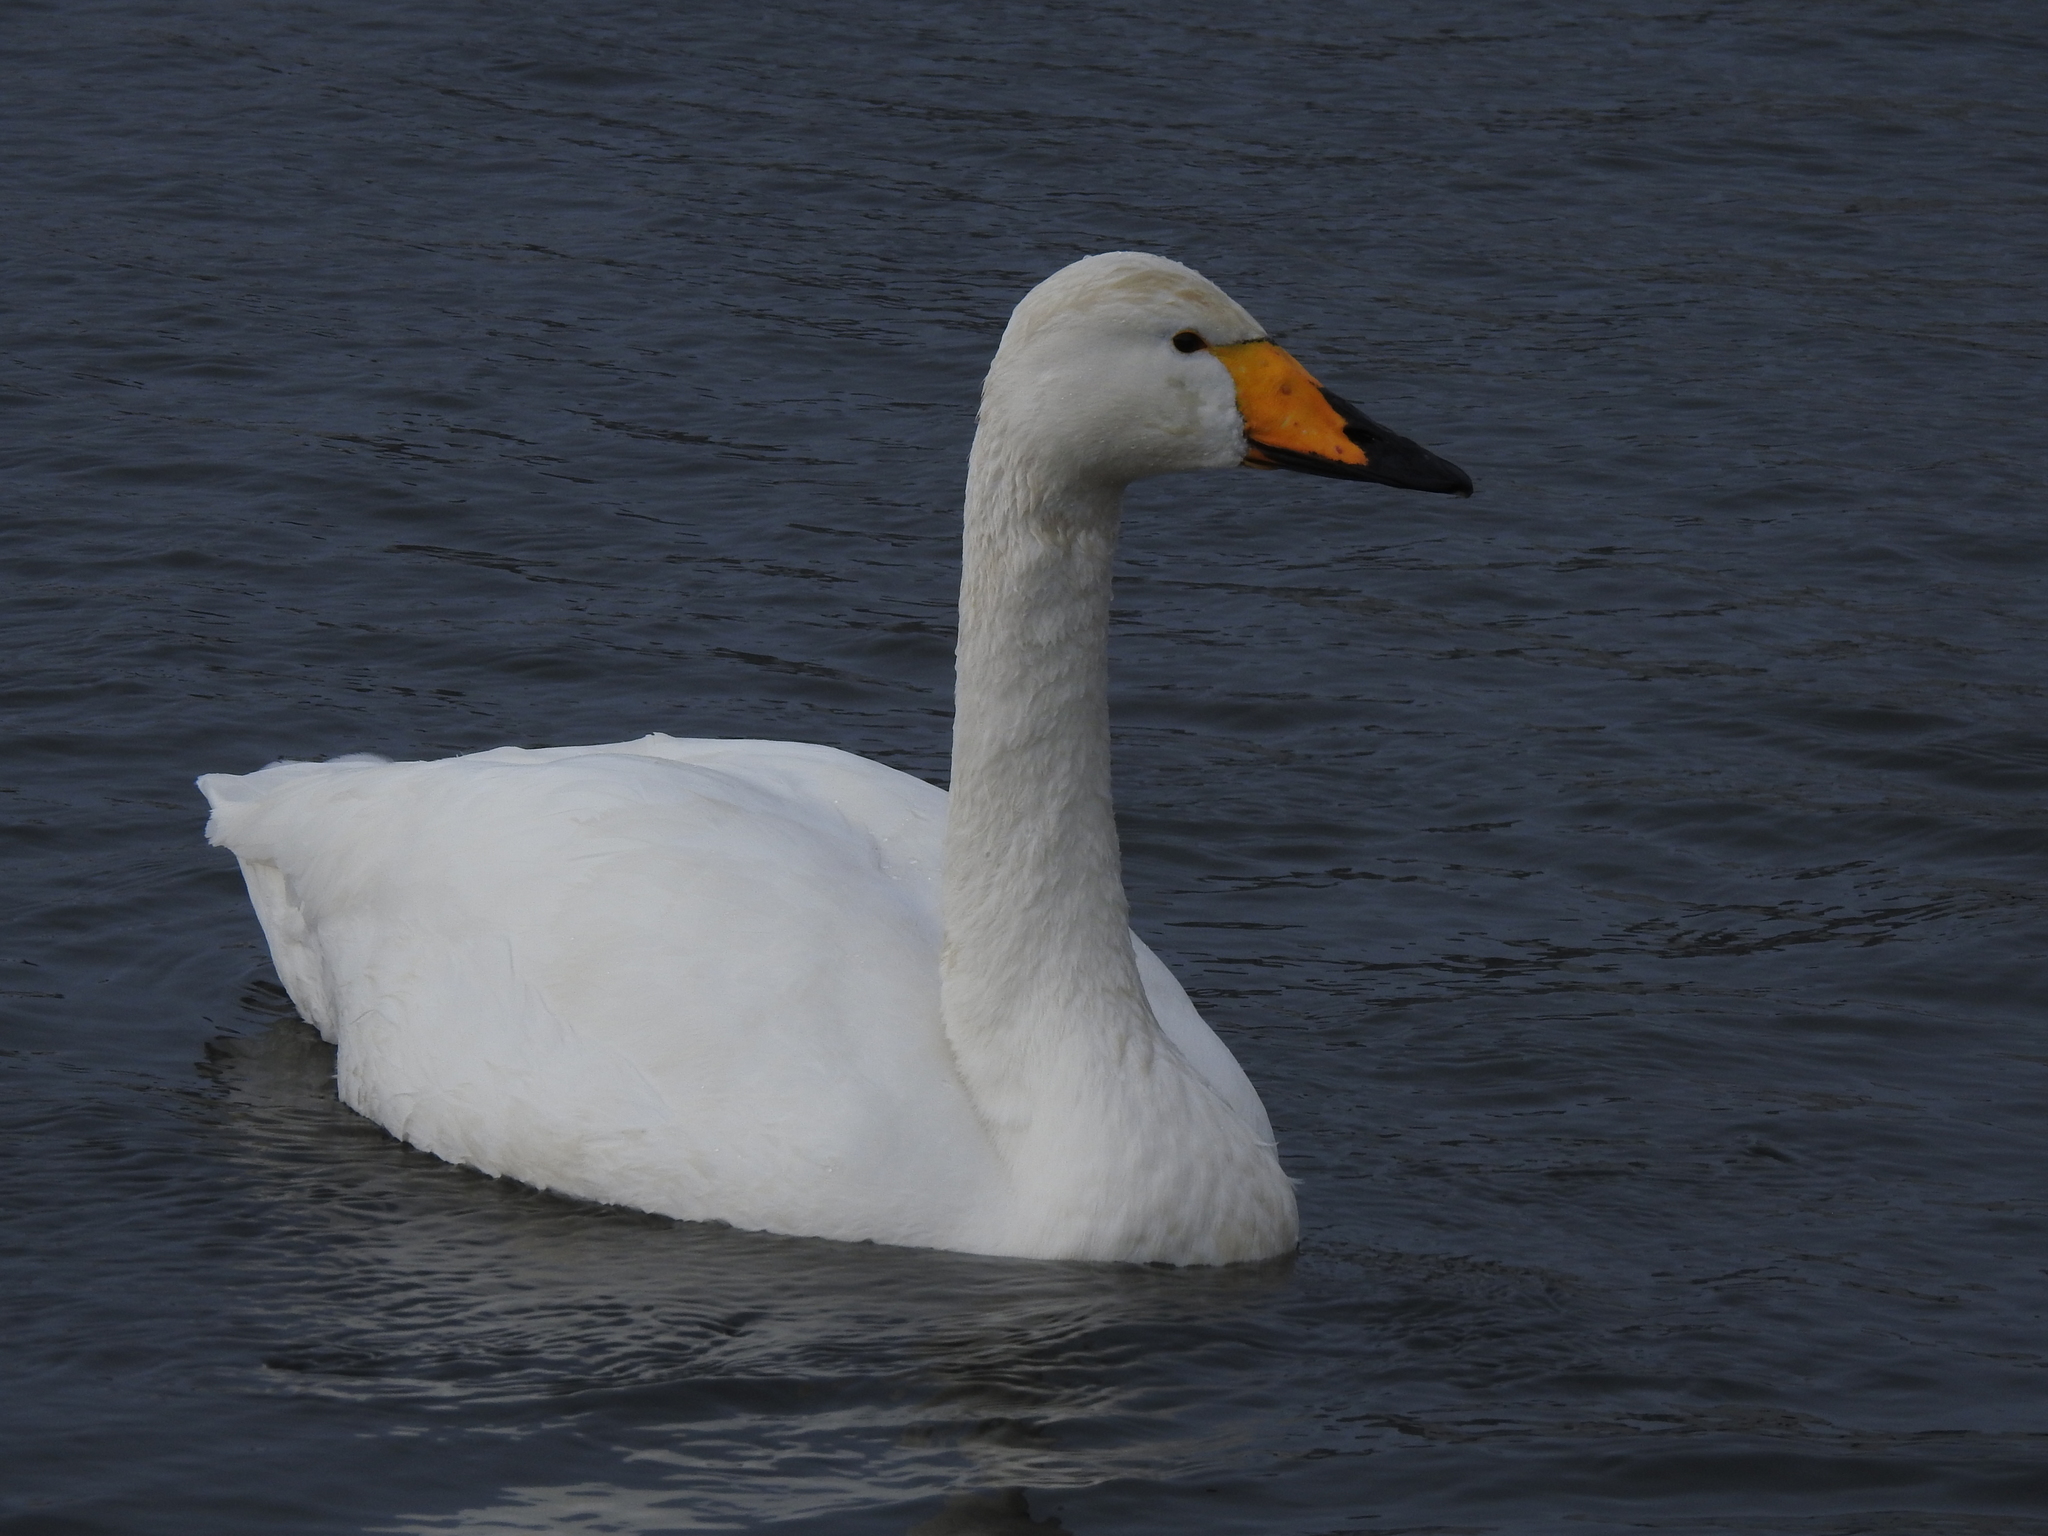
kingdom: Animalia
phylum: Chordata
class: Aves
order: Anseriformes
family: Anatidae
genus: Cygnus
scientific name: Cygnus cygnus
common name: Whooper swan
